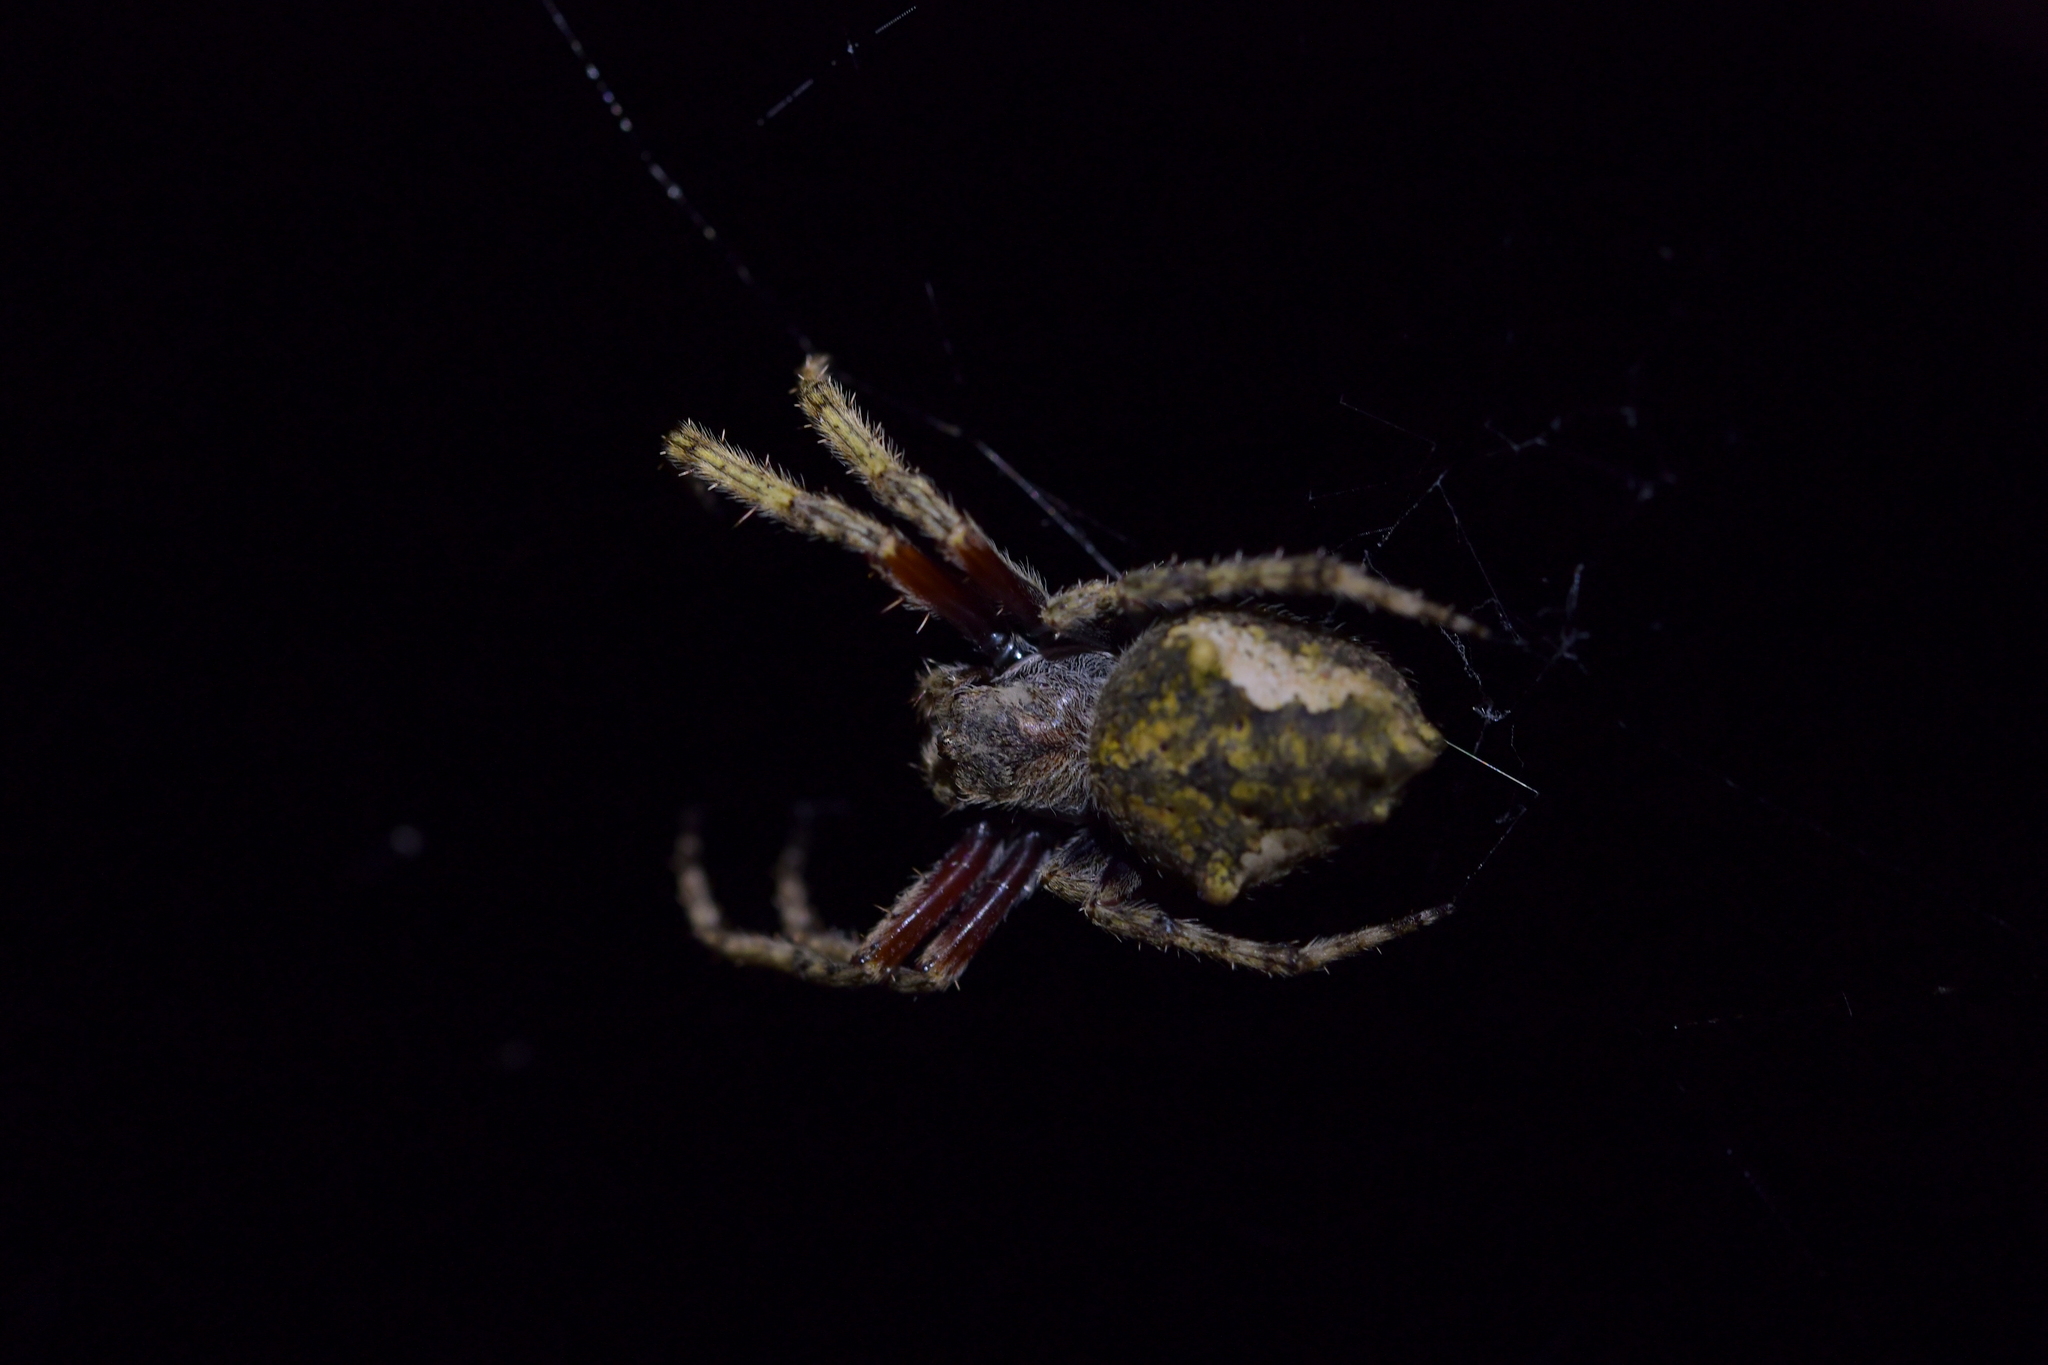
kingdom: Animalia
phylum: Arthropoda
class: Arachnida
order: Araneae
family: Araneidae
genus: Eriophora
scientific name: Eriophora pustulosa
